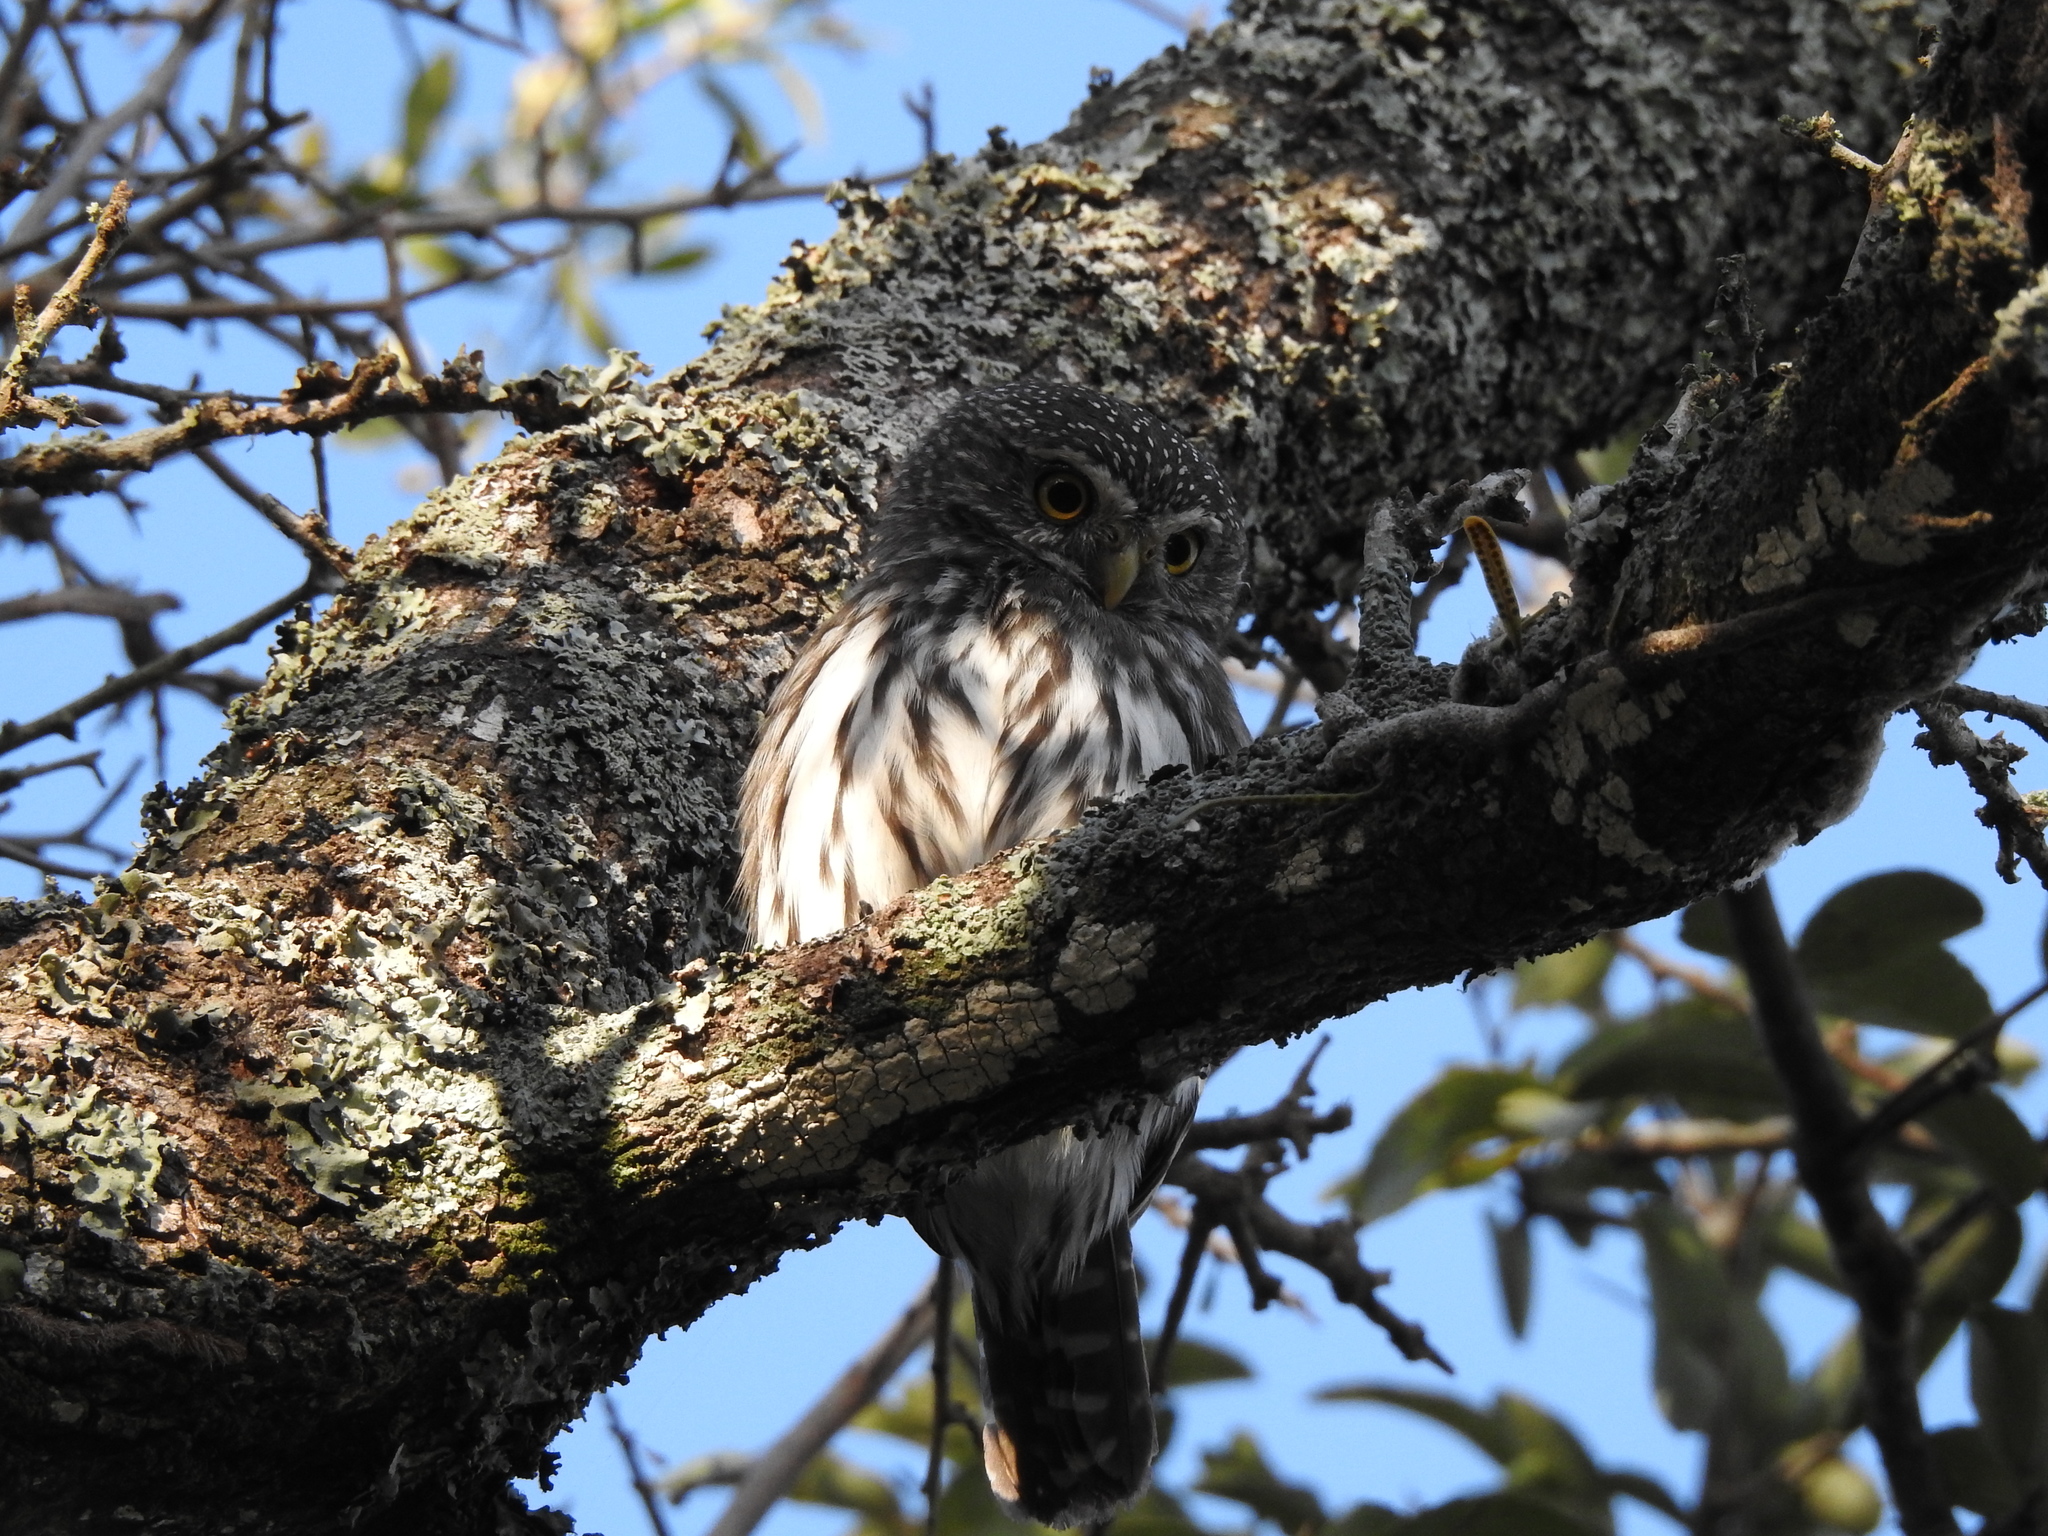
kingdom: Animalia
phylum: Chordata
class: Aves
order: Strigiformes
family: Strigidae
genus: Glaucidium
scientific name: Glaucidium brasilianum
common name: Ferruginous pygmy-owl
